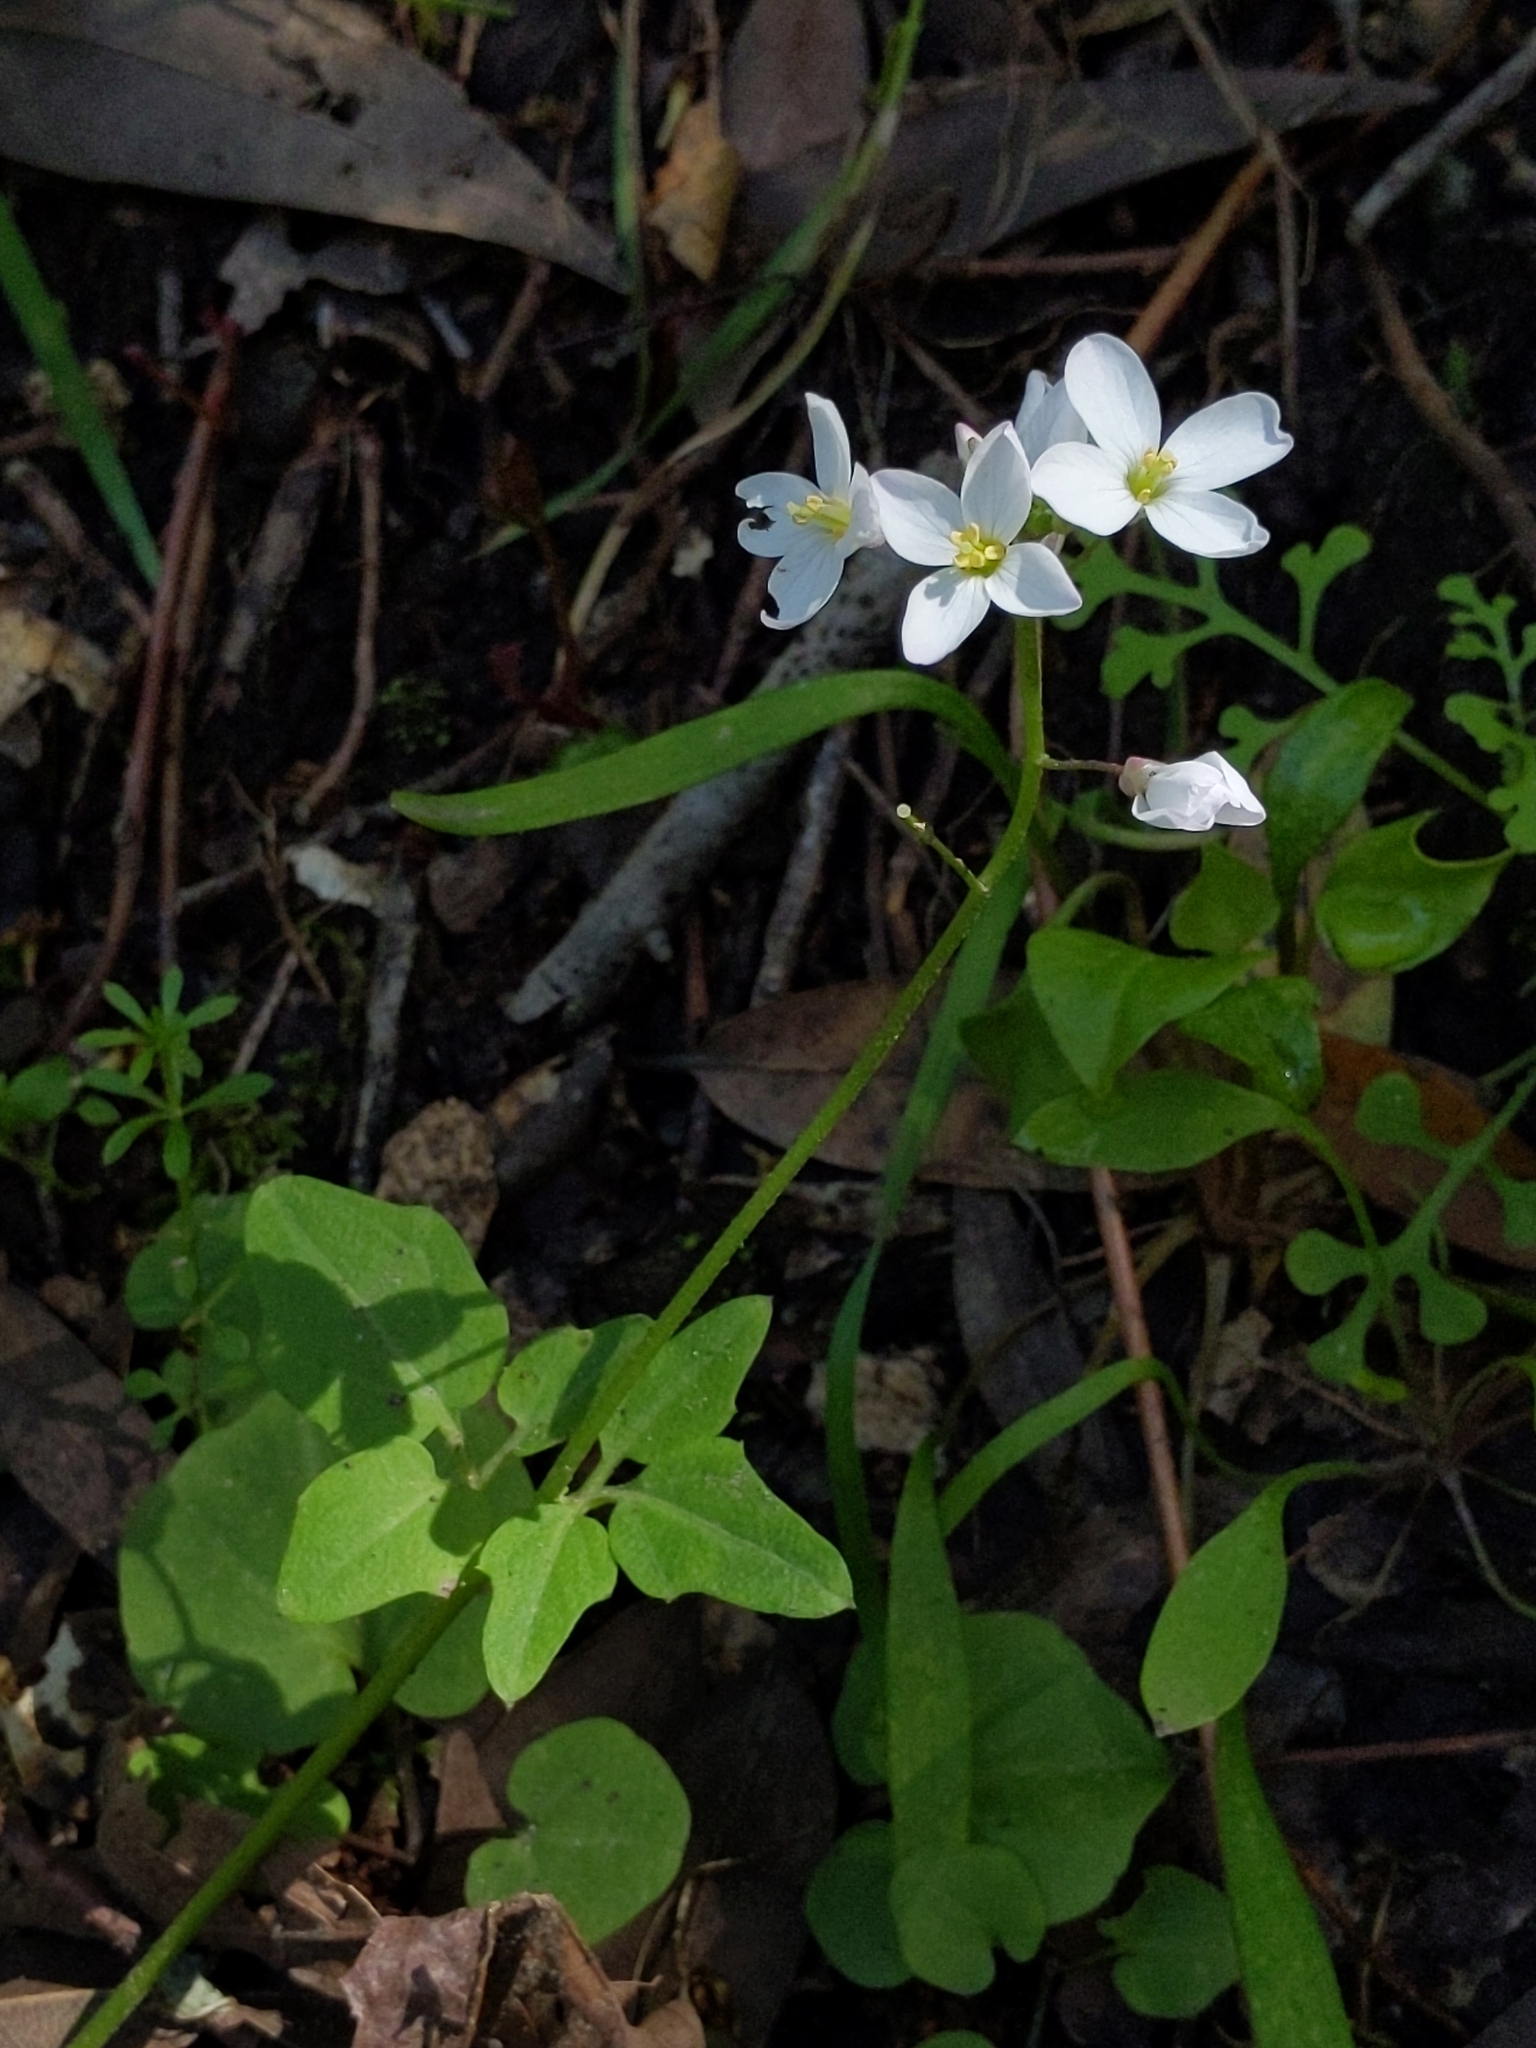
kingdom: Plantae
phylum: Tracheophyta
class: Magnoliopsida
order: Brassicales
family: Brassicaceae
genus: Cardamine
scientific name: Cardamine californica
